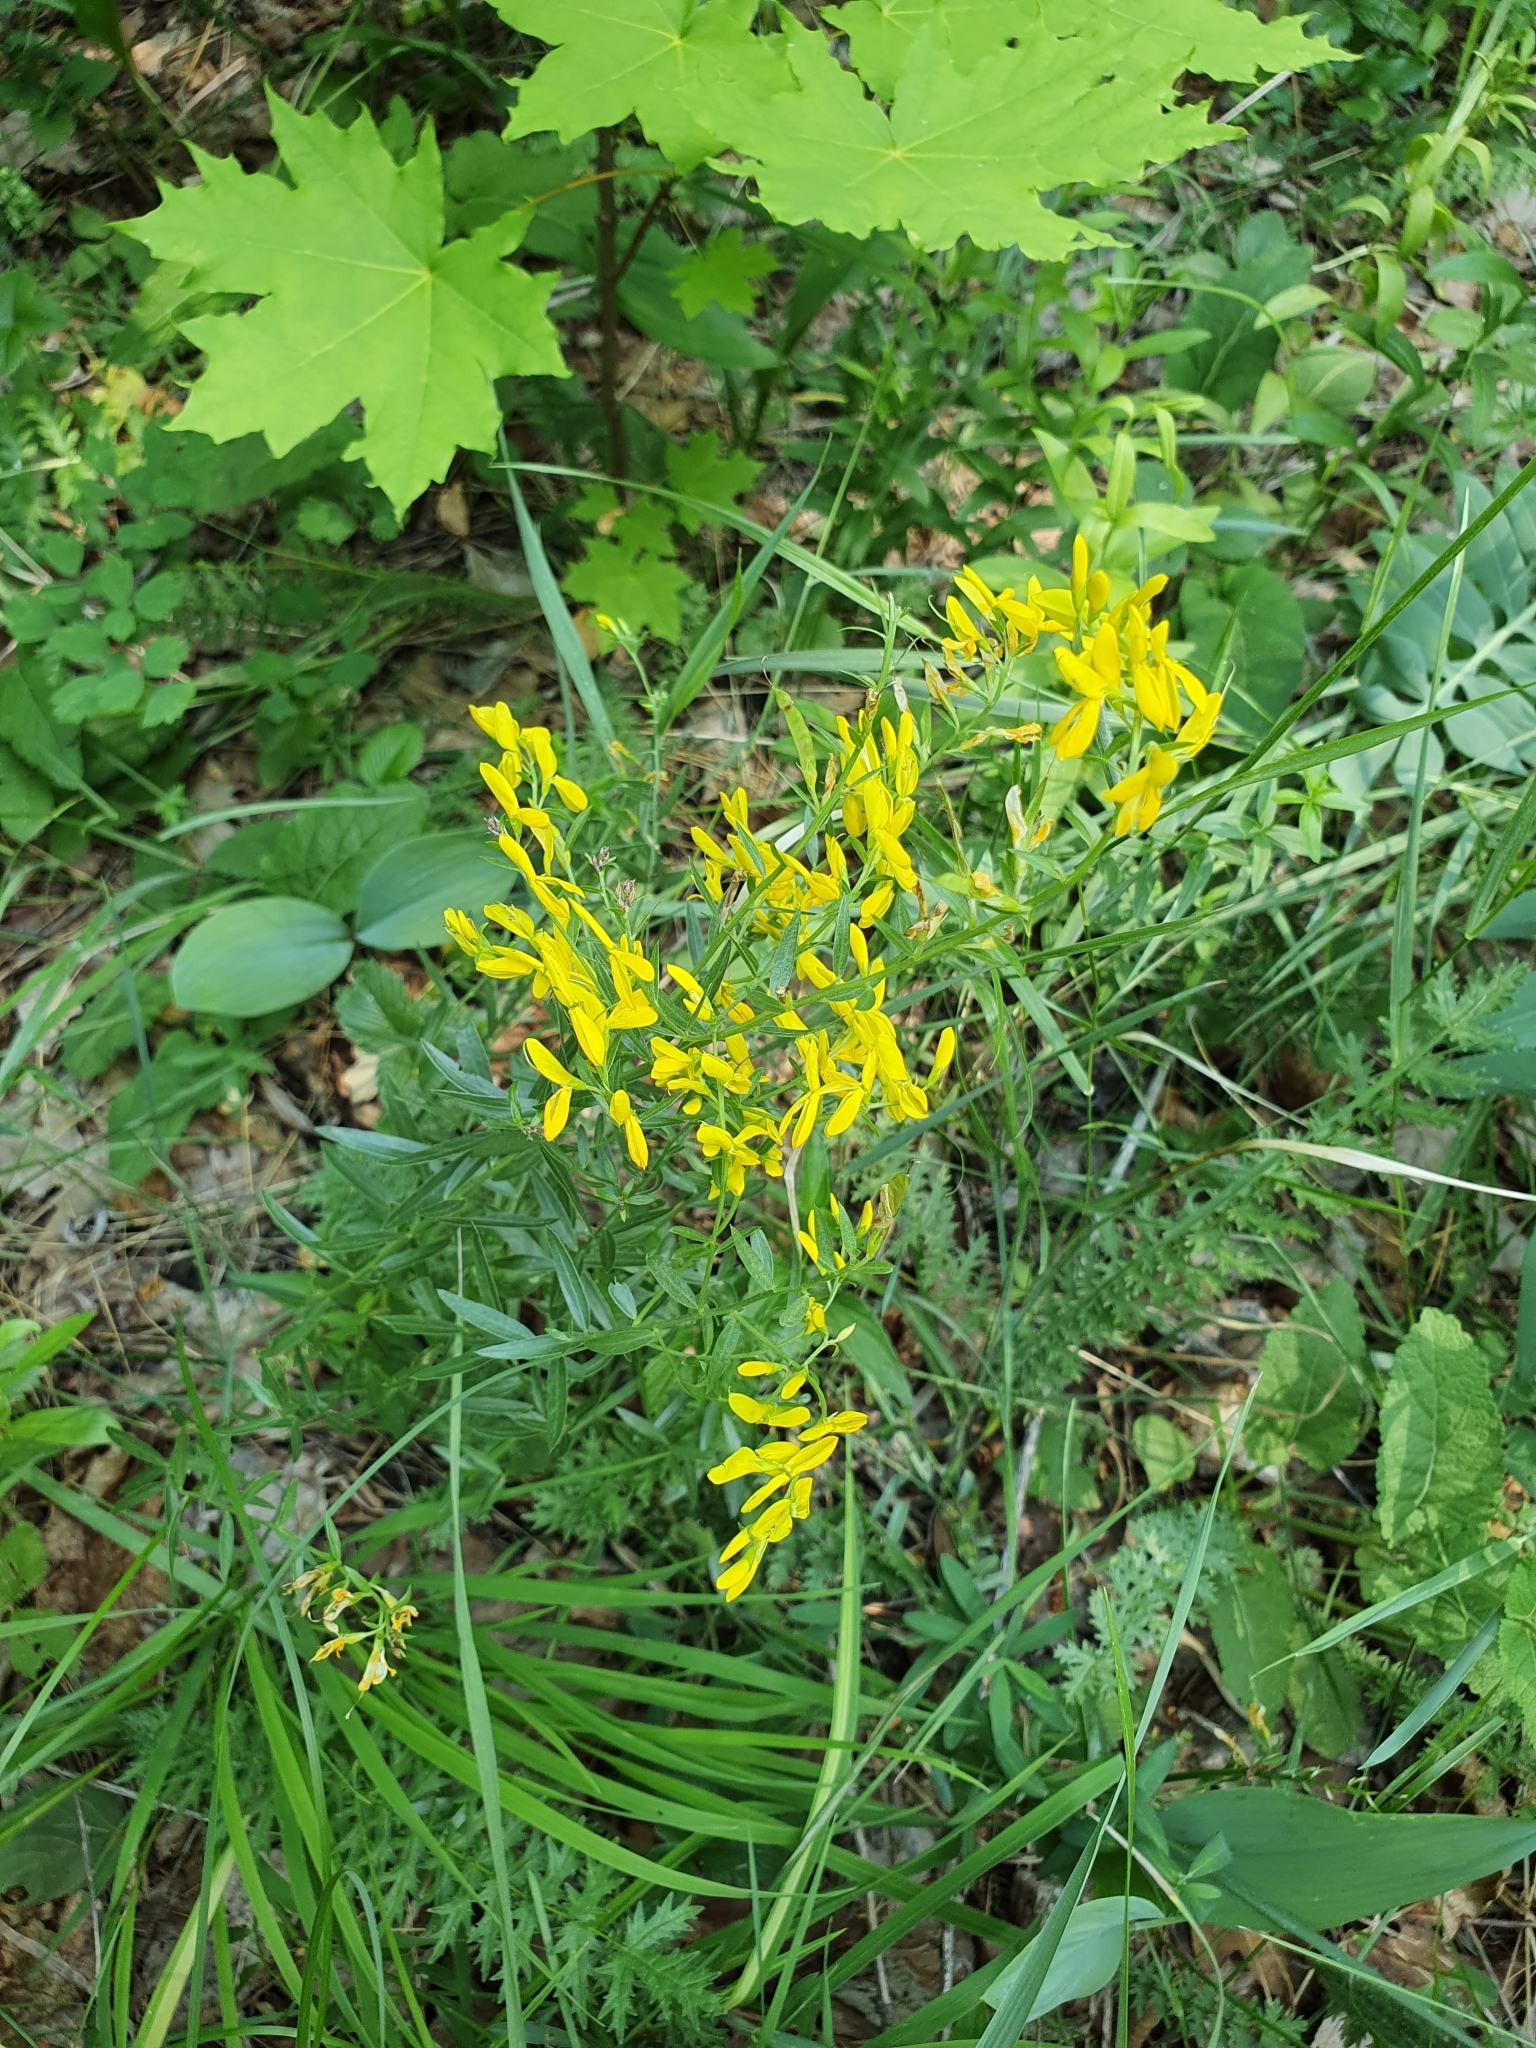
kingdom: Plantae
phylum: Tracheophyta
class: Magnoliopsida
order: Fabales
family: Fabaceae
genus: Genista
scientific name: Genista tinctoria
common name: Dyer's greenweed
